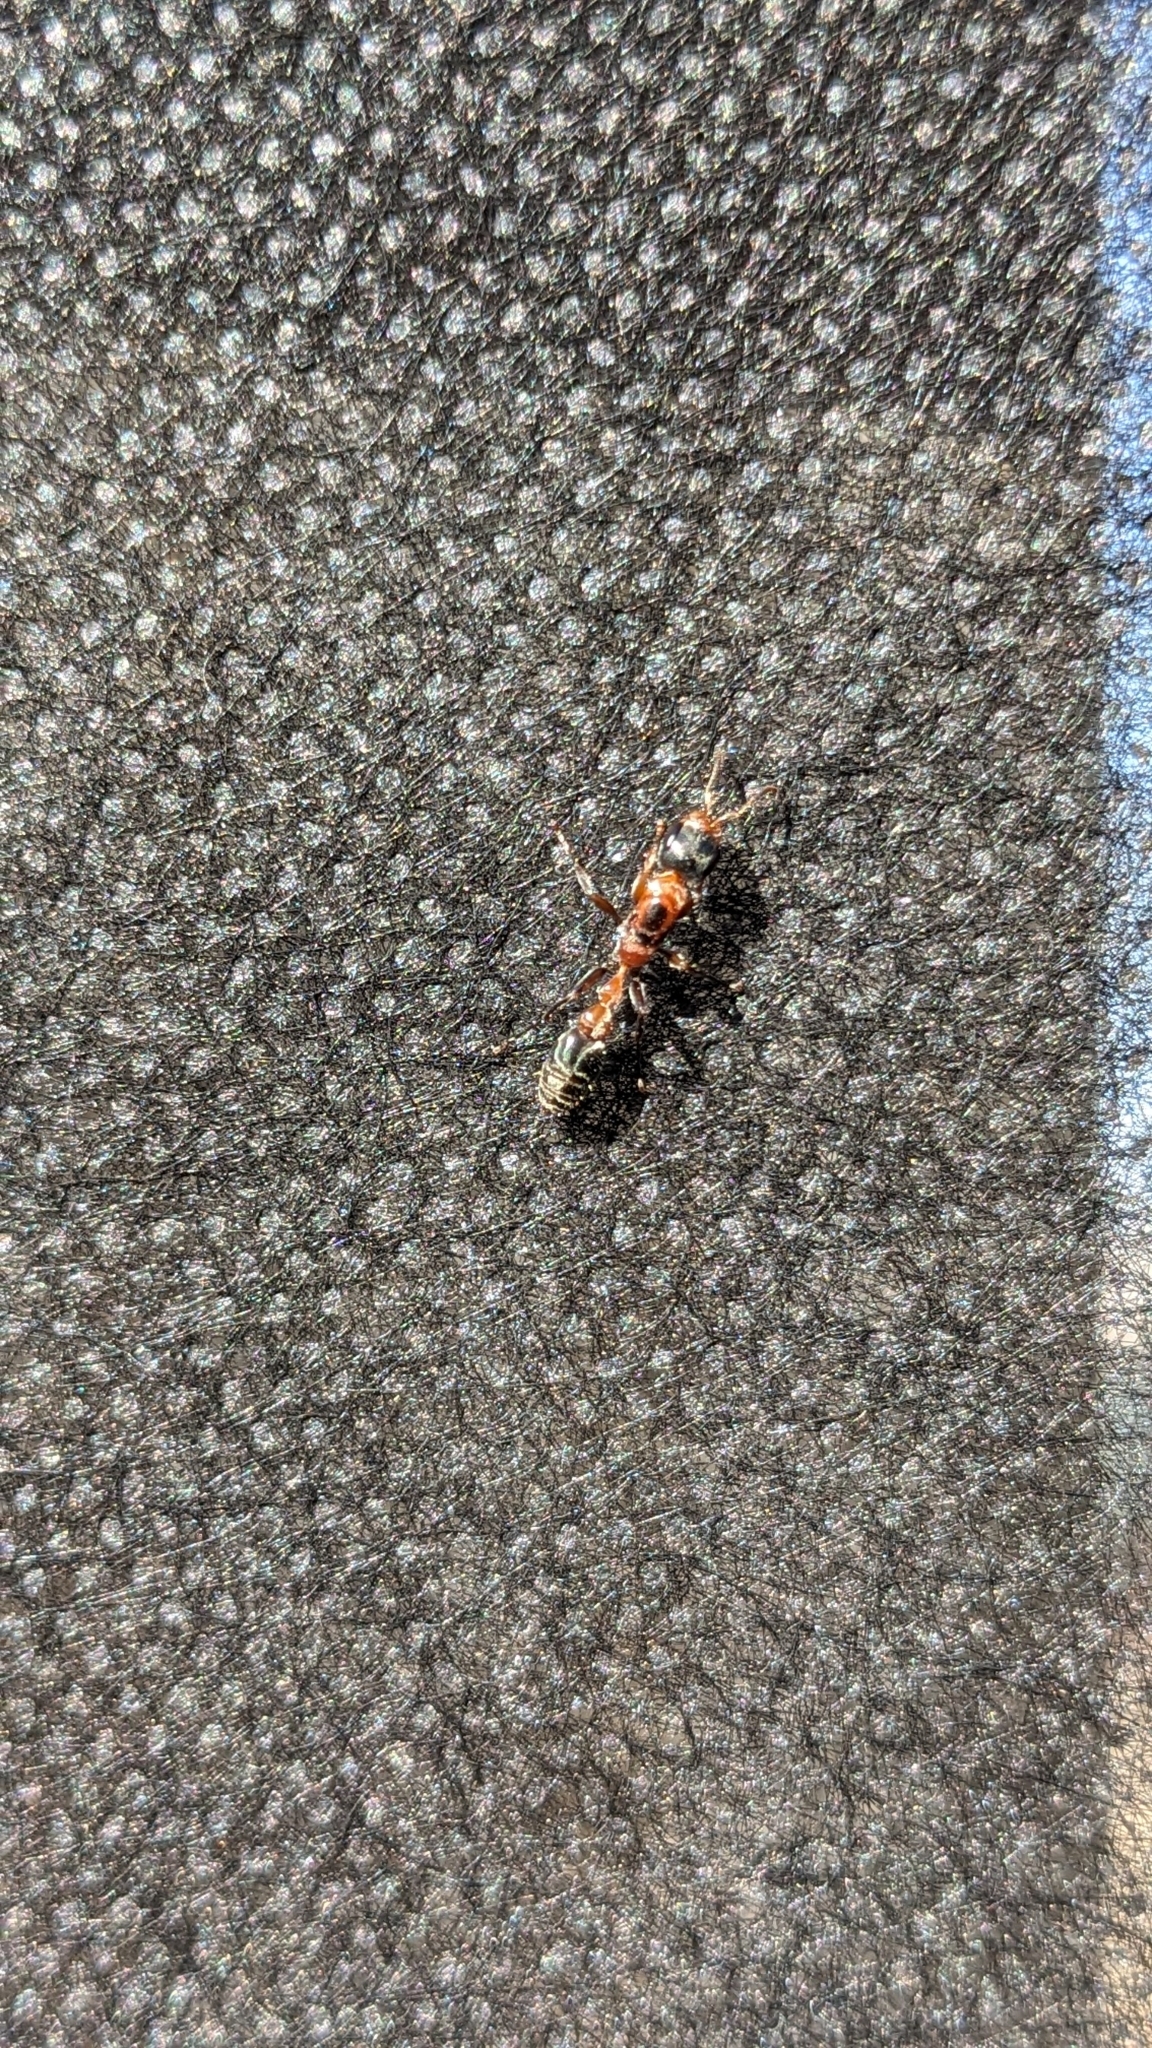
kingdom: Animalia
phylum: Arthropoda
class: Insecta
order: Hymenoptera
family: Formicidae
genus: Pseudomyrmex
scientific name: Pseudomyrmex gracilis
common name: Graceful twig ant
